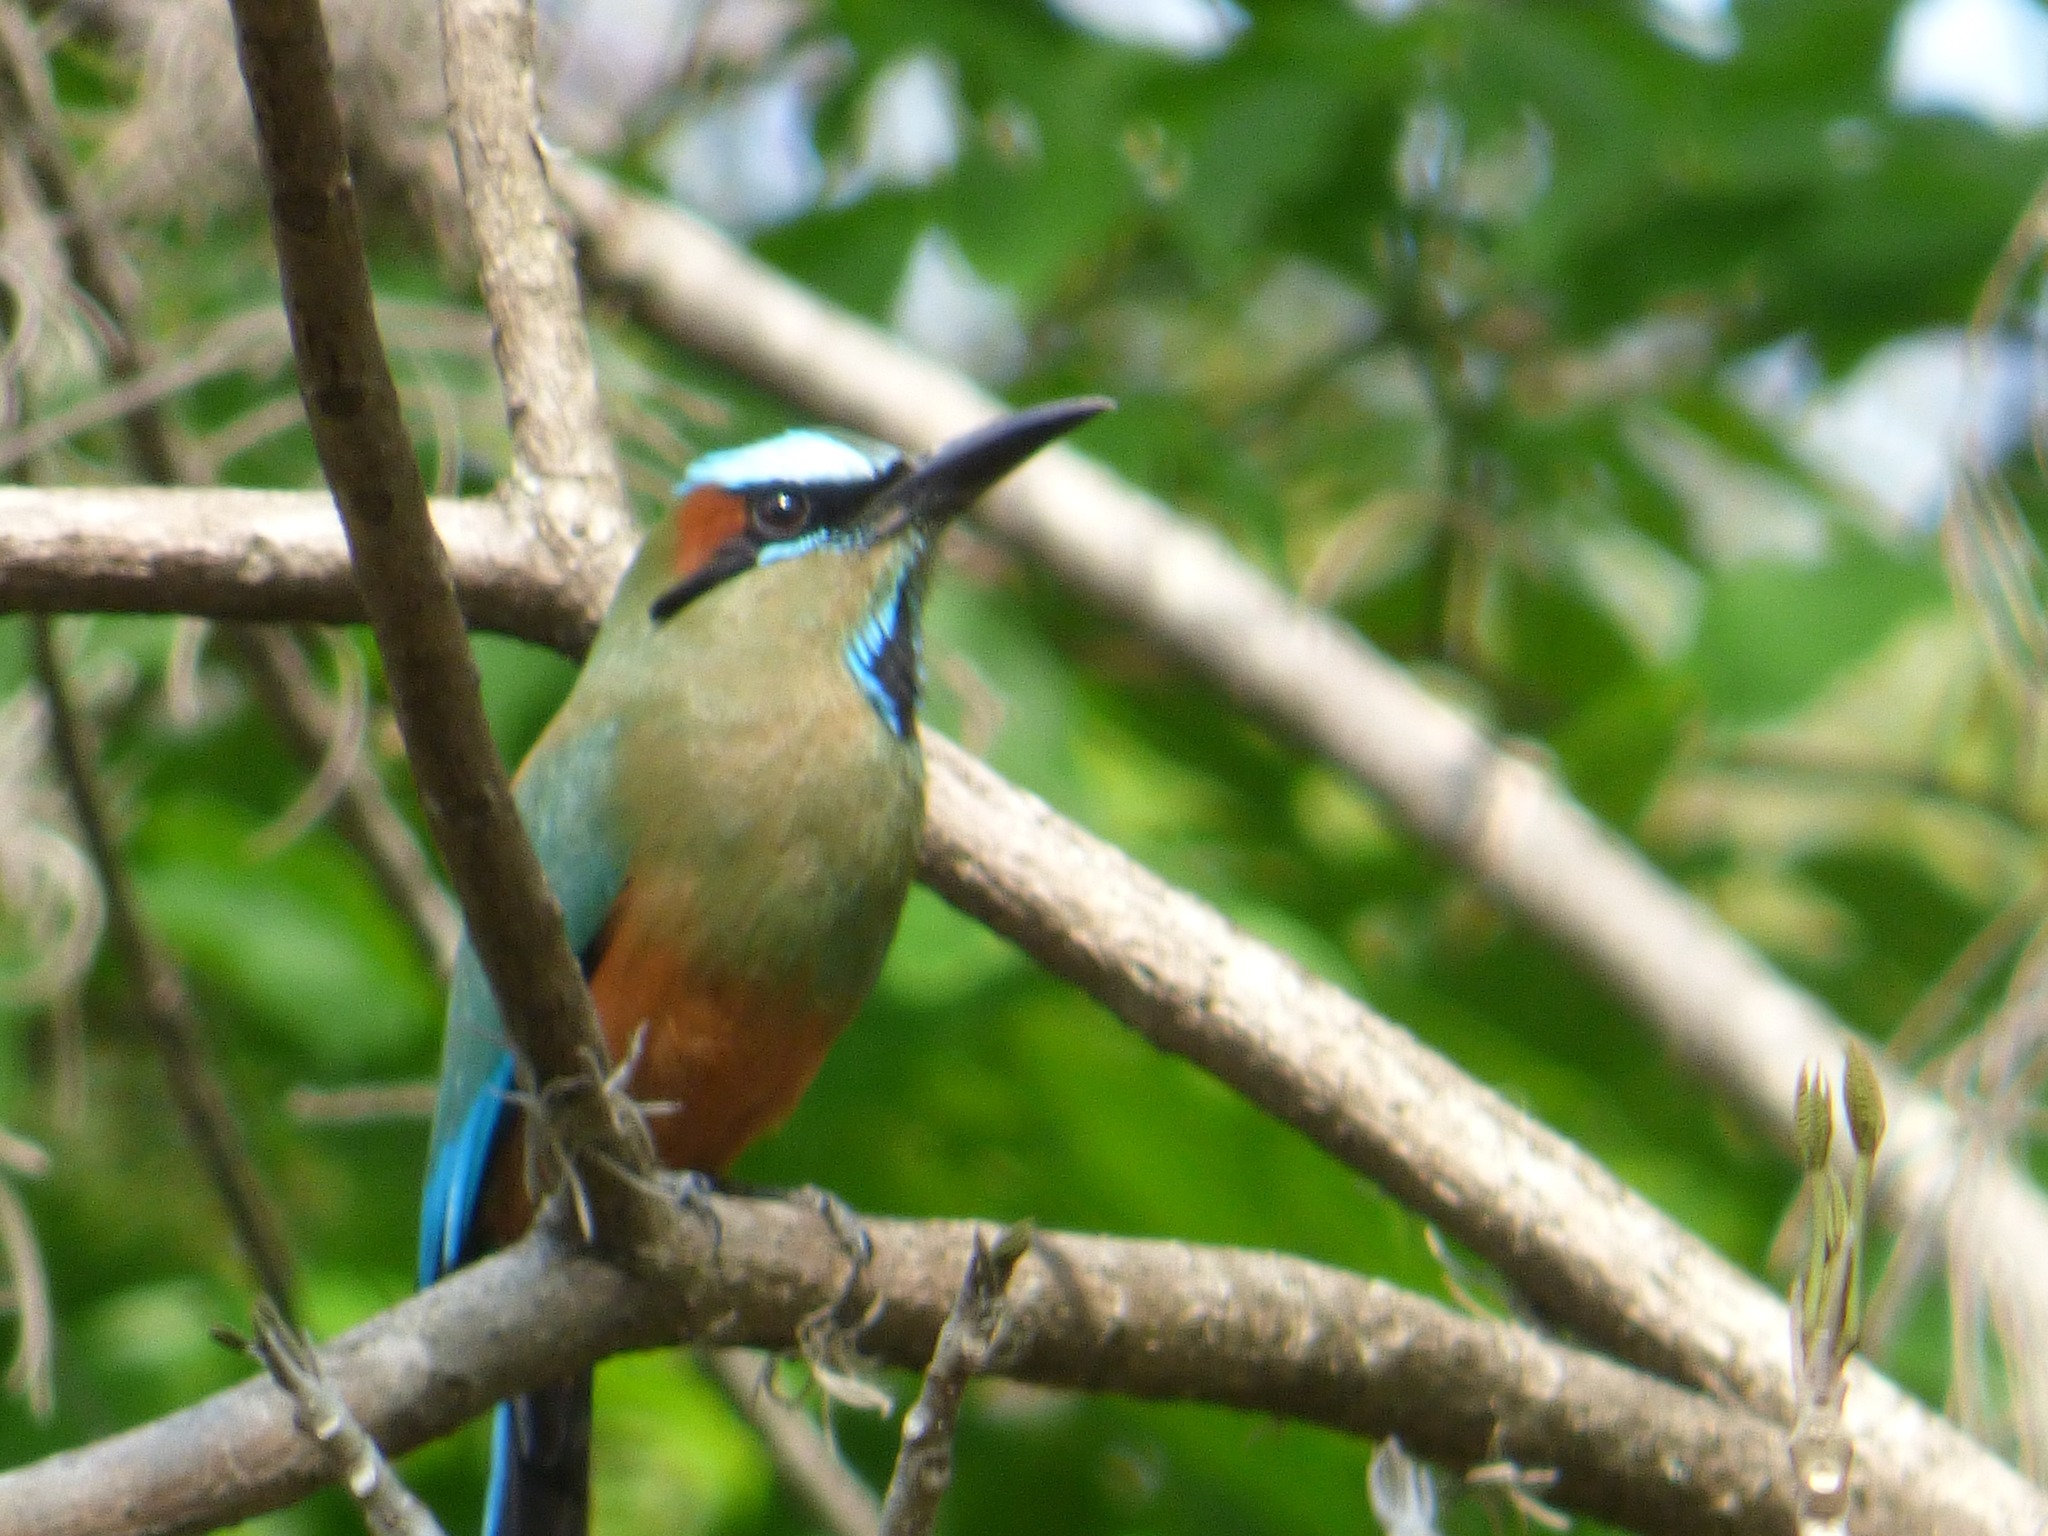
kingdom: Animalia
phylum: Chordata
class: Aves
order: Coraciiformes
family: Momotidae
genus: Eumomota
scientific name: Eumomota superciliosa
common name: Turquoise-browed motmot
